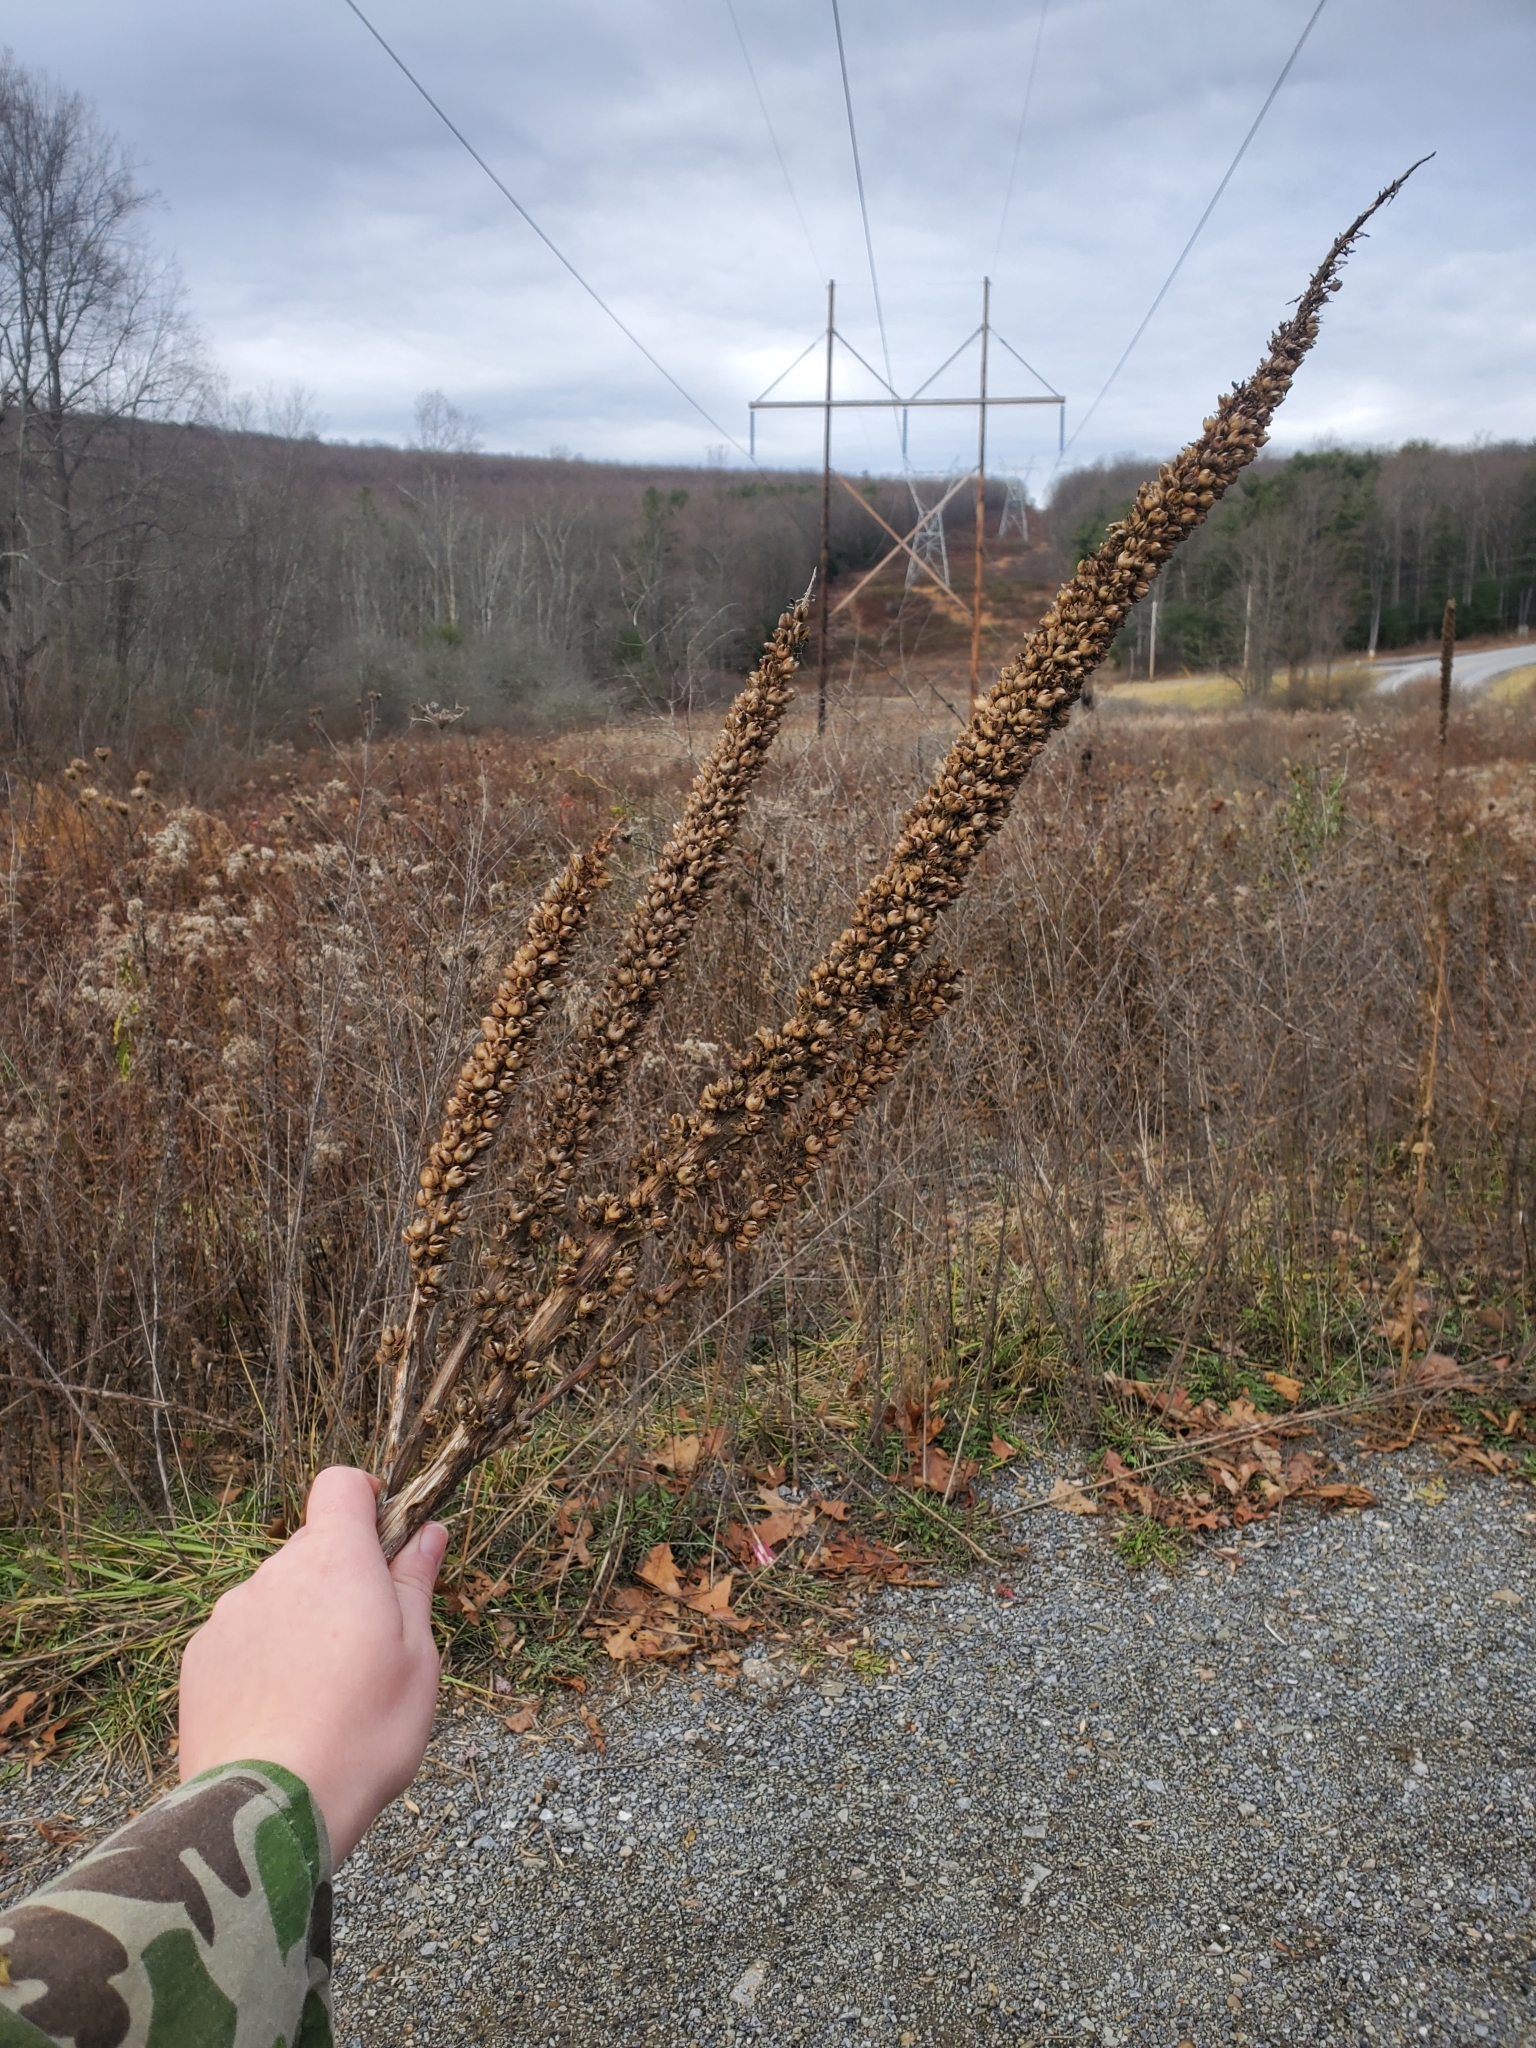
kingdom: Plantae
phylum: Tracheophyta
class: Magnoliopsida
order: Lamiales
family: Scrophulariaceae
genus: Verbascum
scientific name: Verbascum thapsus
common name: Common mullein
